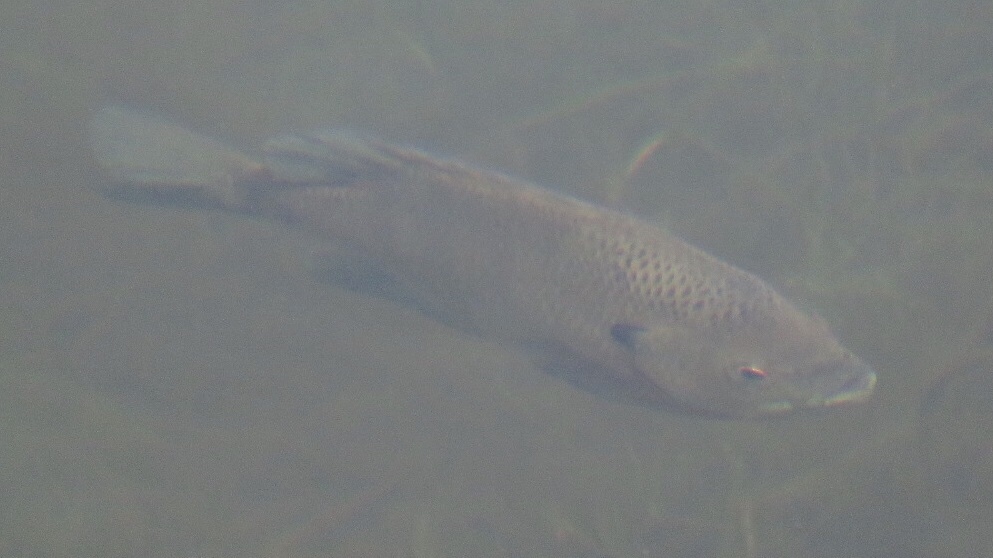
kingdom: Animalia
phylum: Chordata
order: Perciformes
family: Centrarchidae
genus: Lepomis
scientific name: Lepomis macrochirus
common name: Bluegill
